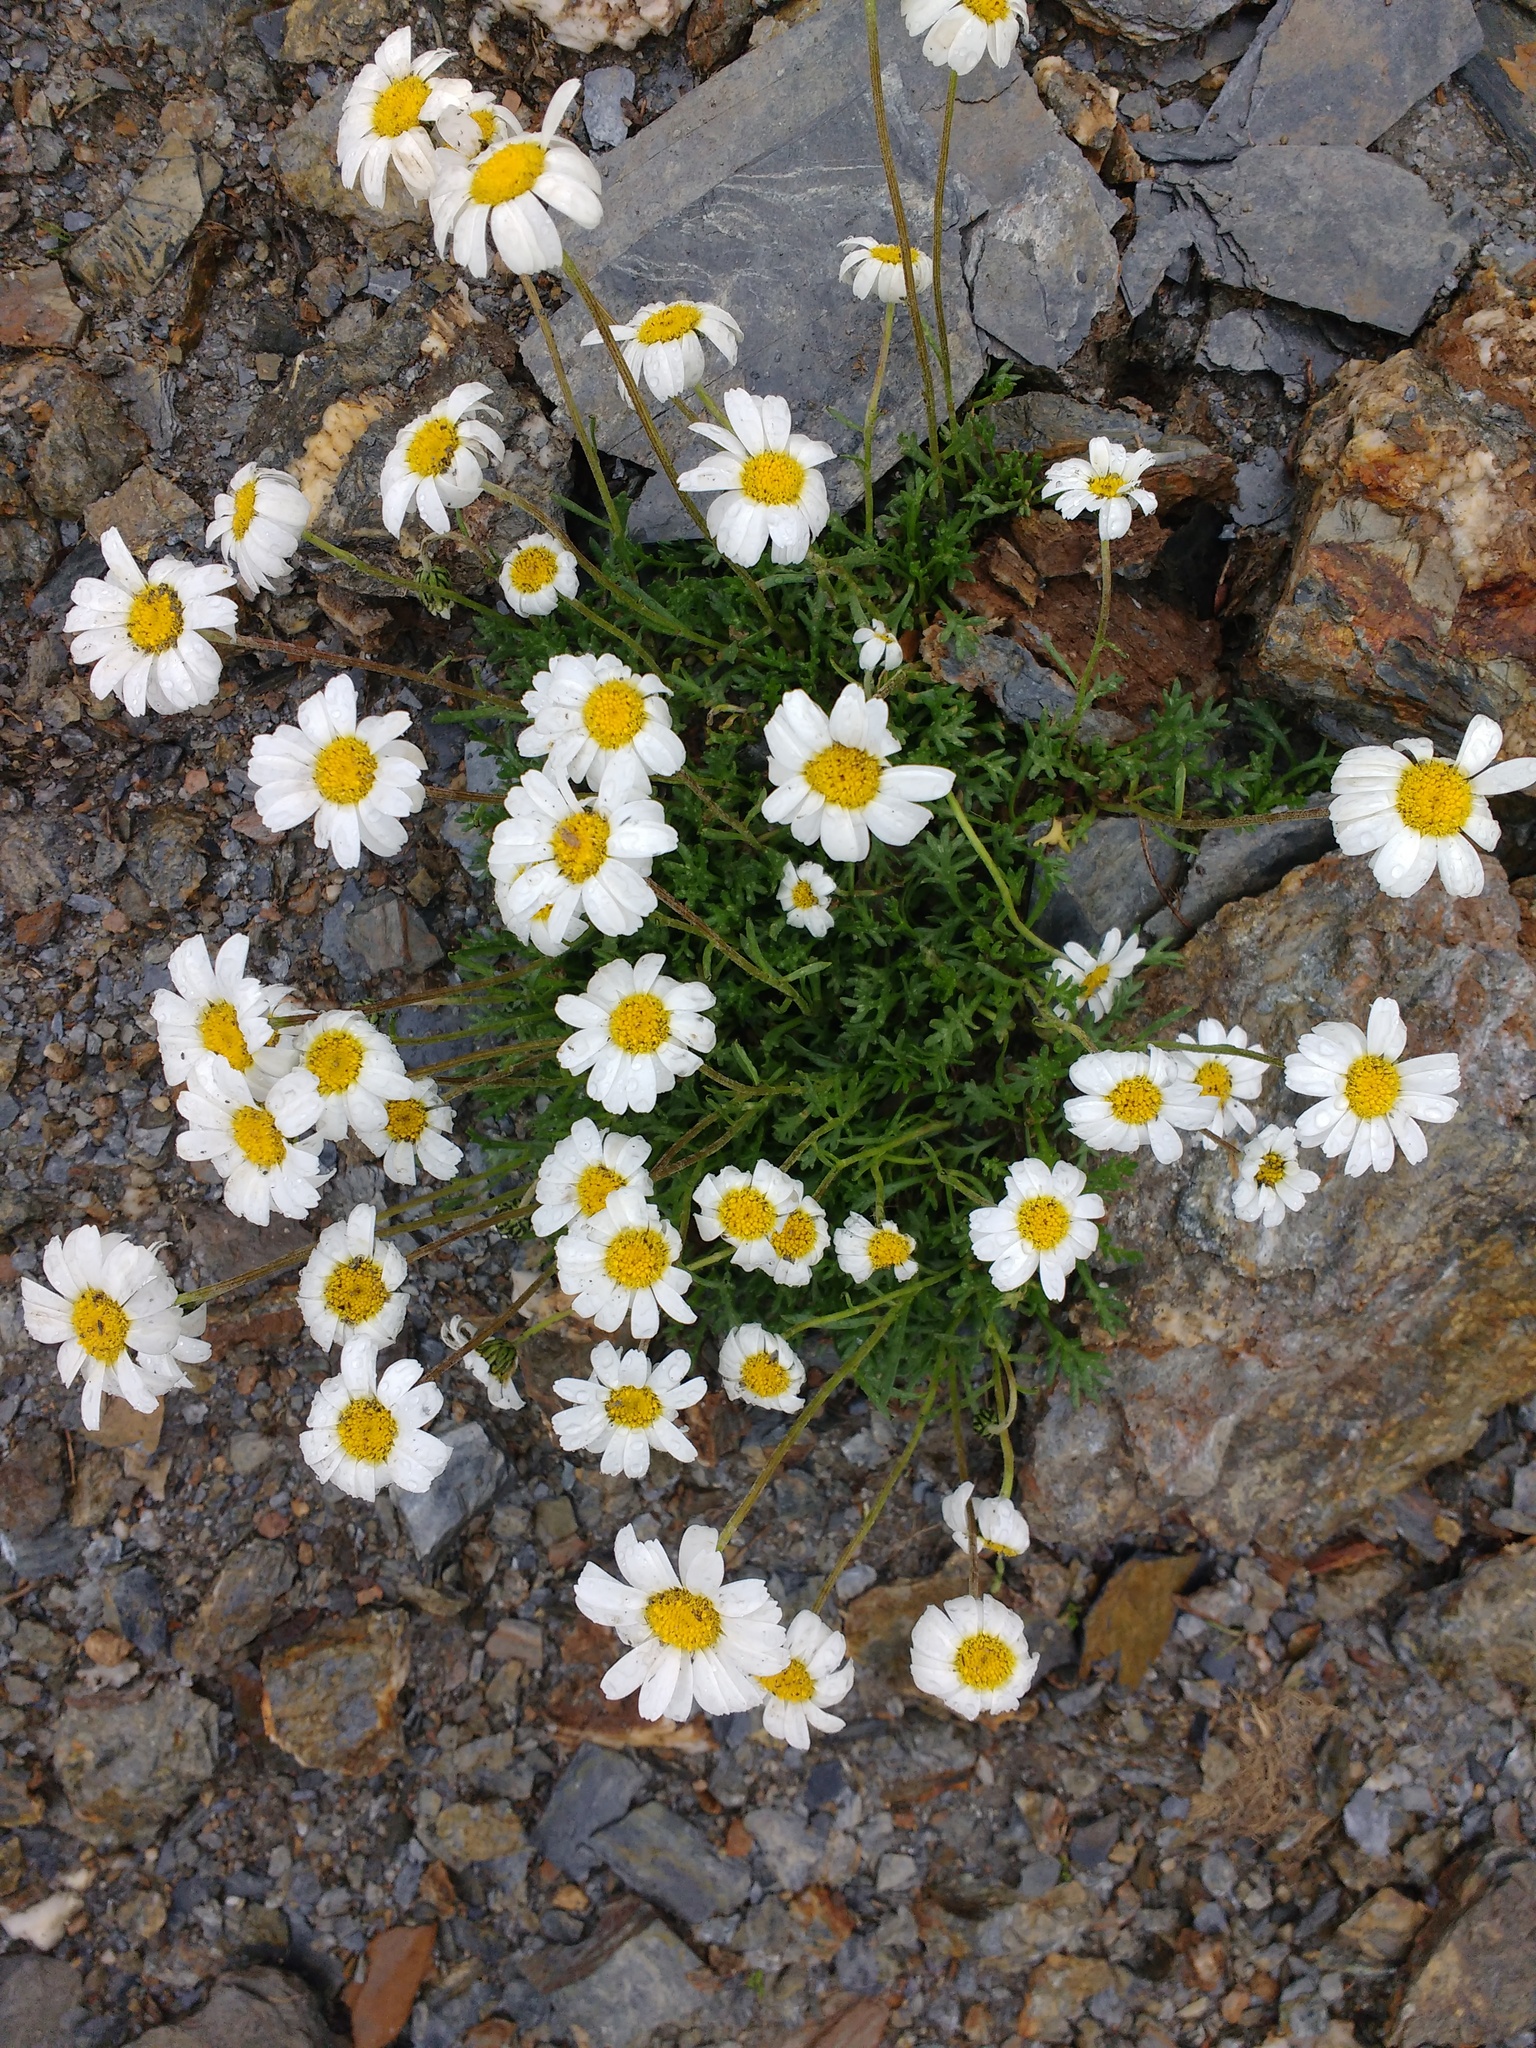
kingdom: Plantae
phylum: Tracheophyta
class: Magnoliopsida
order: Asterales
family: Asteraceae
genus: Leucanthemopsis
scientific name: Leucanthemopsis alpina
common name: Alpine moon daisy
